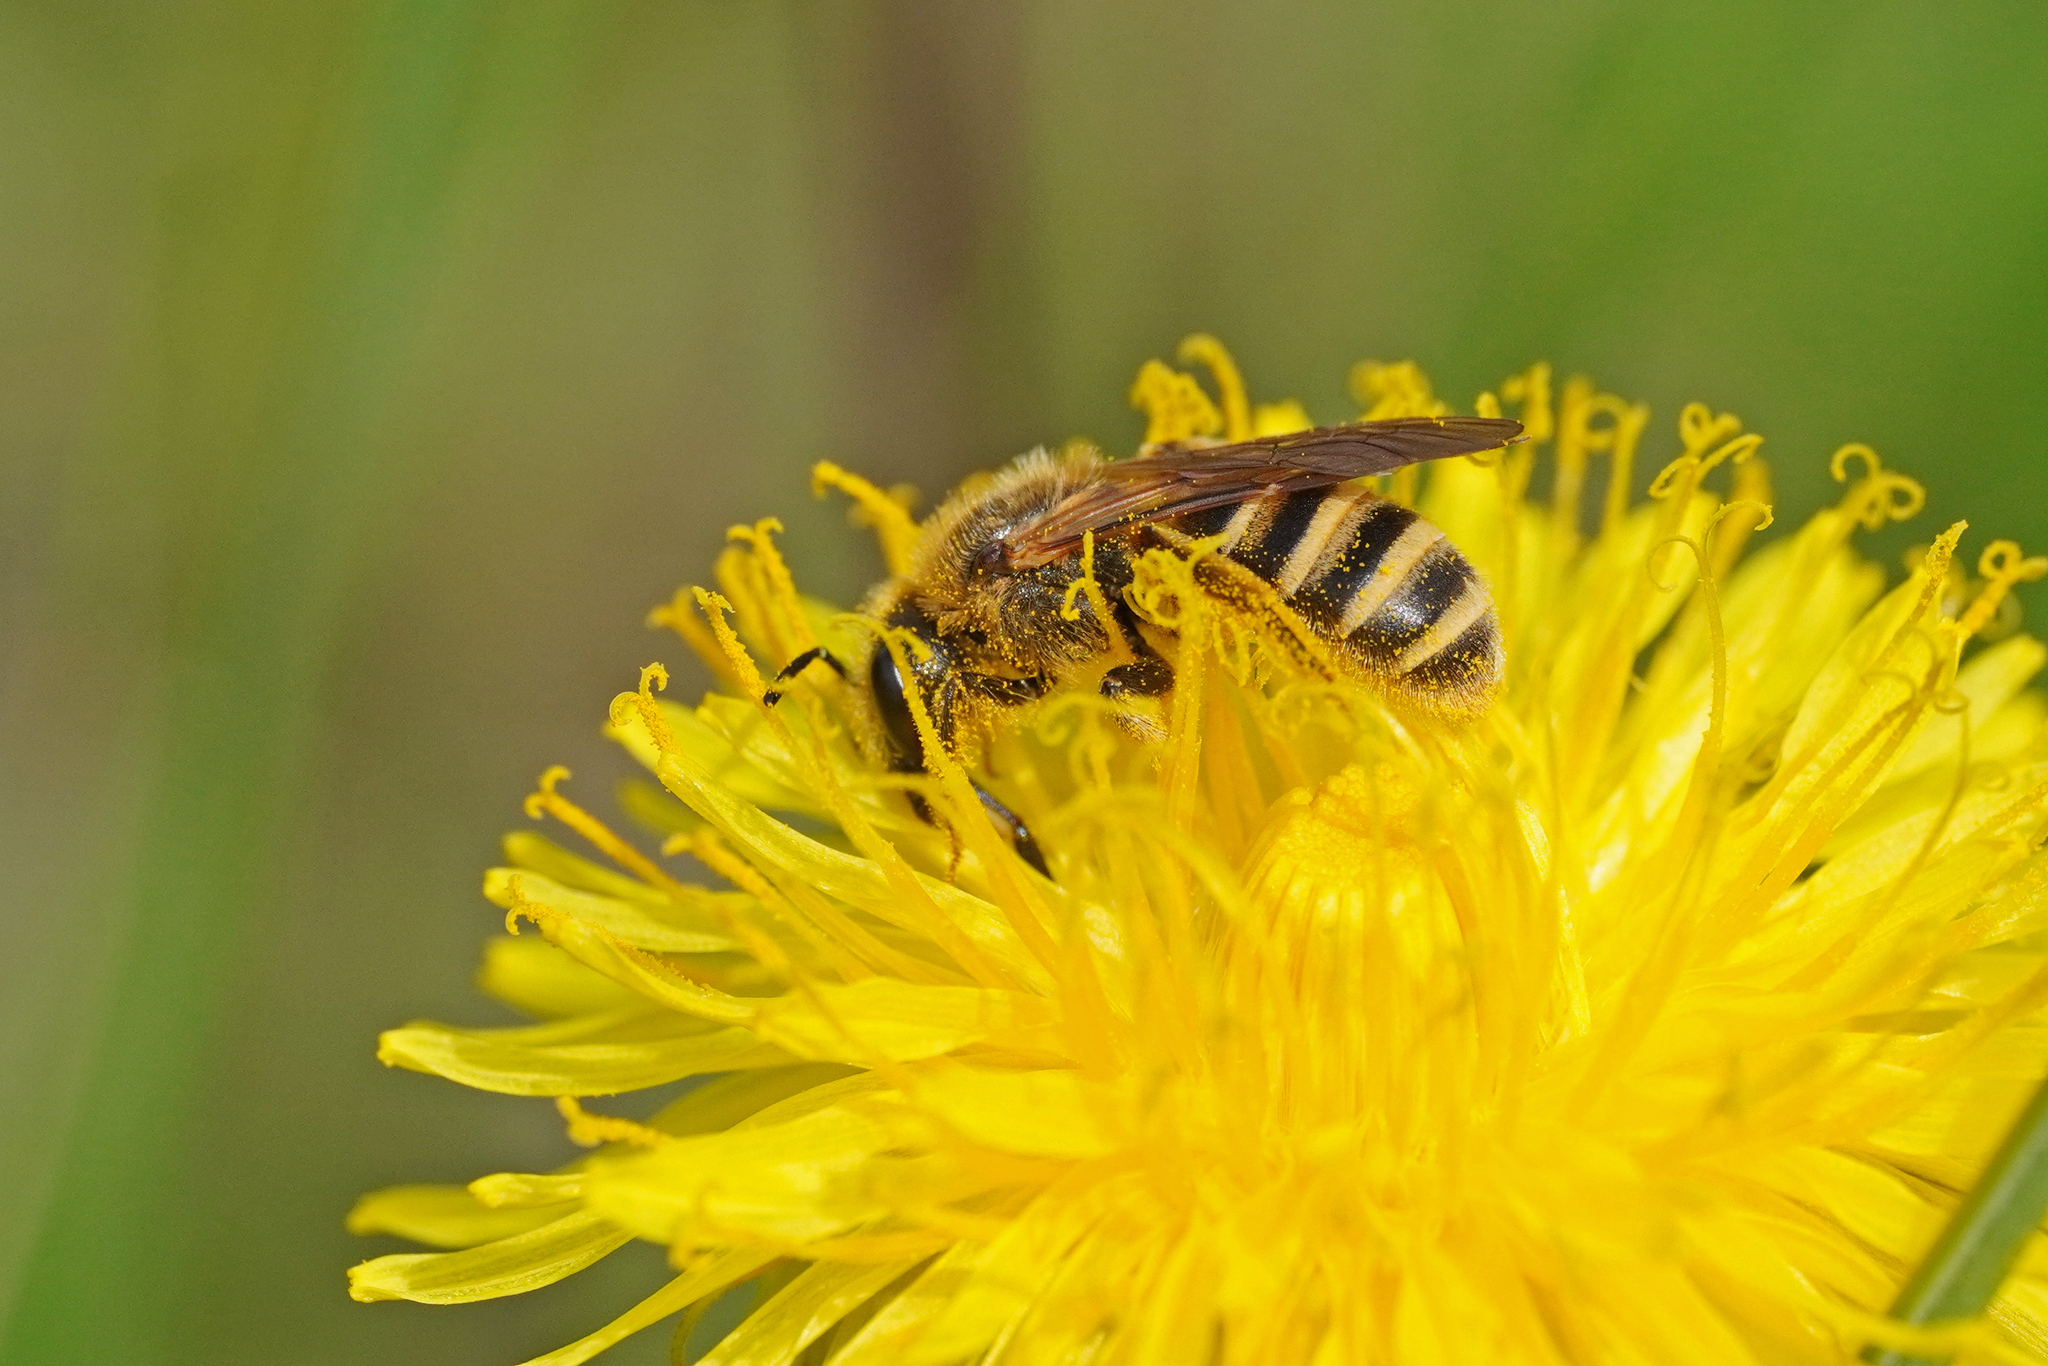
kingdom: Animalia
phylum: Arthropoda
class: Insecta
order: Hymenoptera
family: Halictidae
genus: Halictus
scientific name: Halictus scabiosae
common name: Great banded furrow bee
